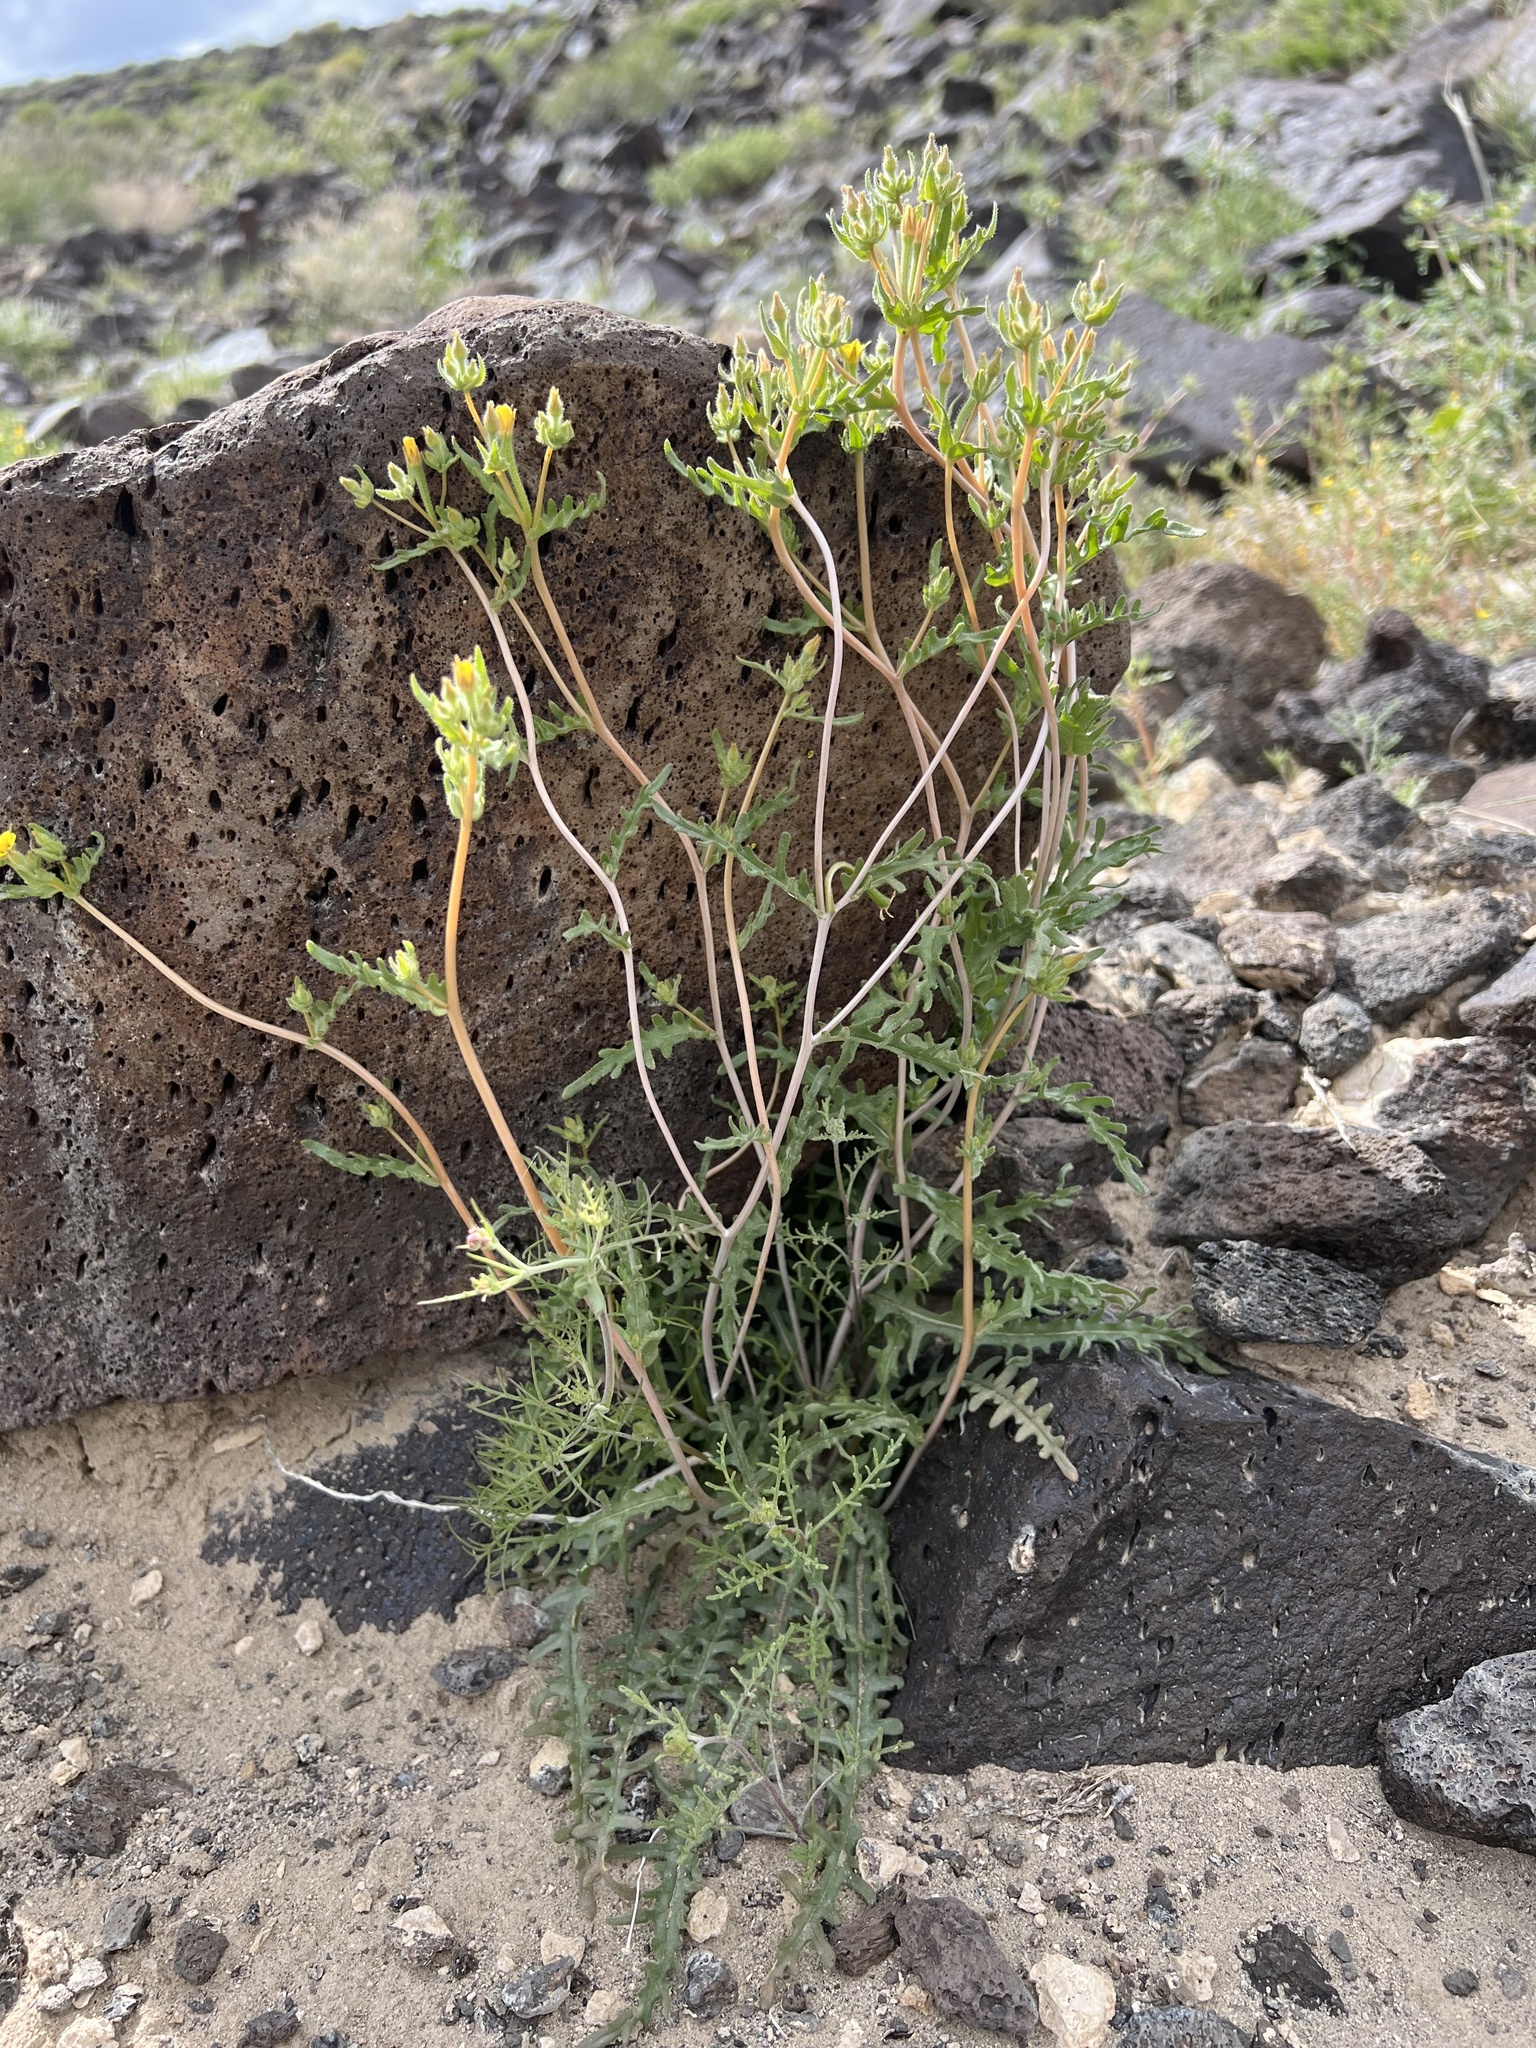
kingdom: Plantae
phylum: Tracheophyta
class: Magnoliopsida
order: Cornales
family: Loasaceae
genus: Mentzelia
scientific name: Mentzelia albicaulis
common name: White-stem blazingstar
